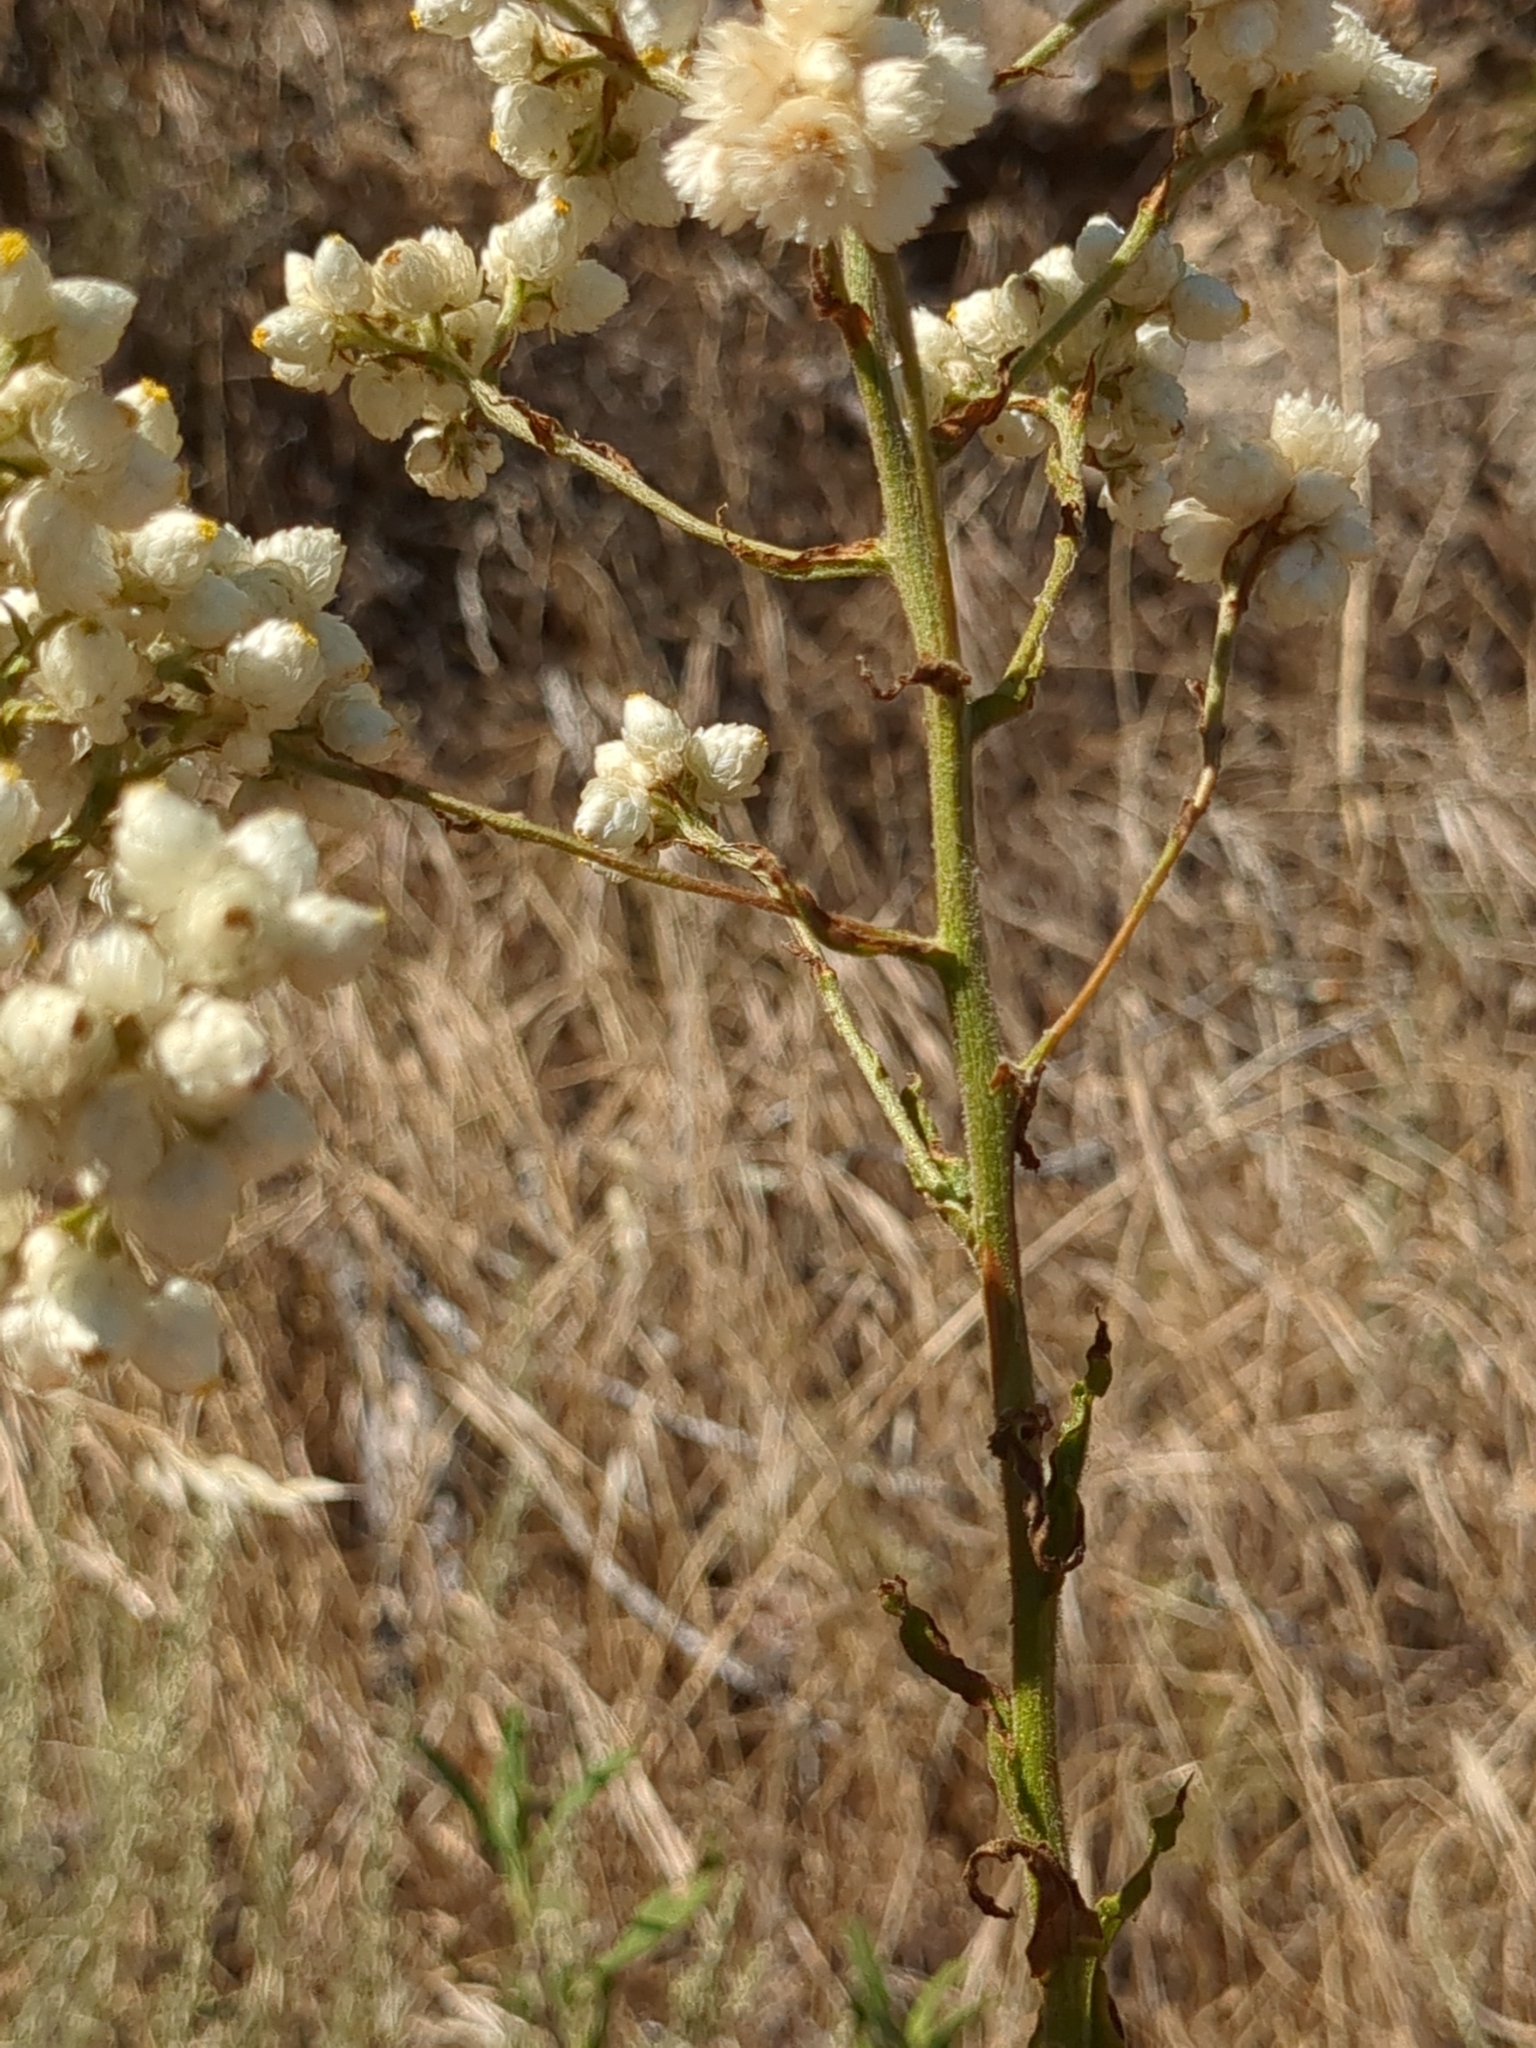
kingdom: Plantae
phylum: Tracheophyta
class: Magnoliopsida
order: Asterales
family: Asteraceae
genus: Pseudognaphalium
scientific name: Pseudognaphalium californicum
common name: California rabbit-tobacco
